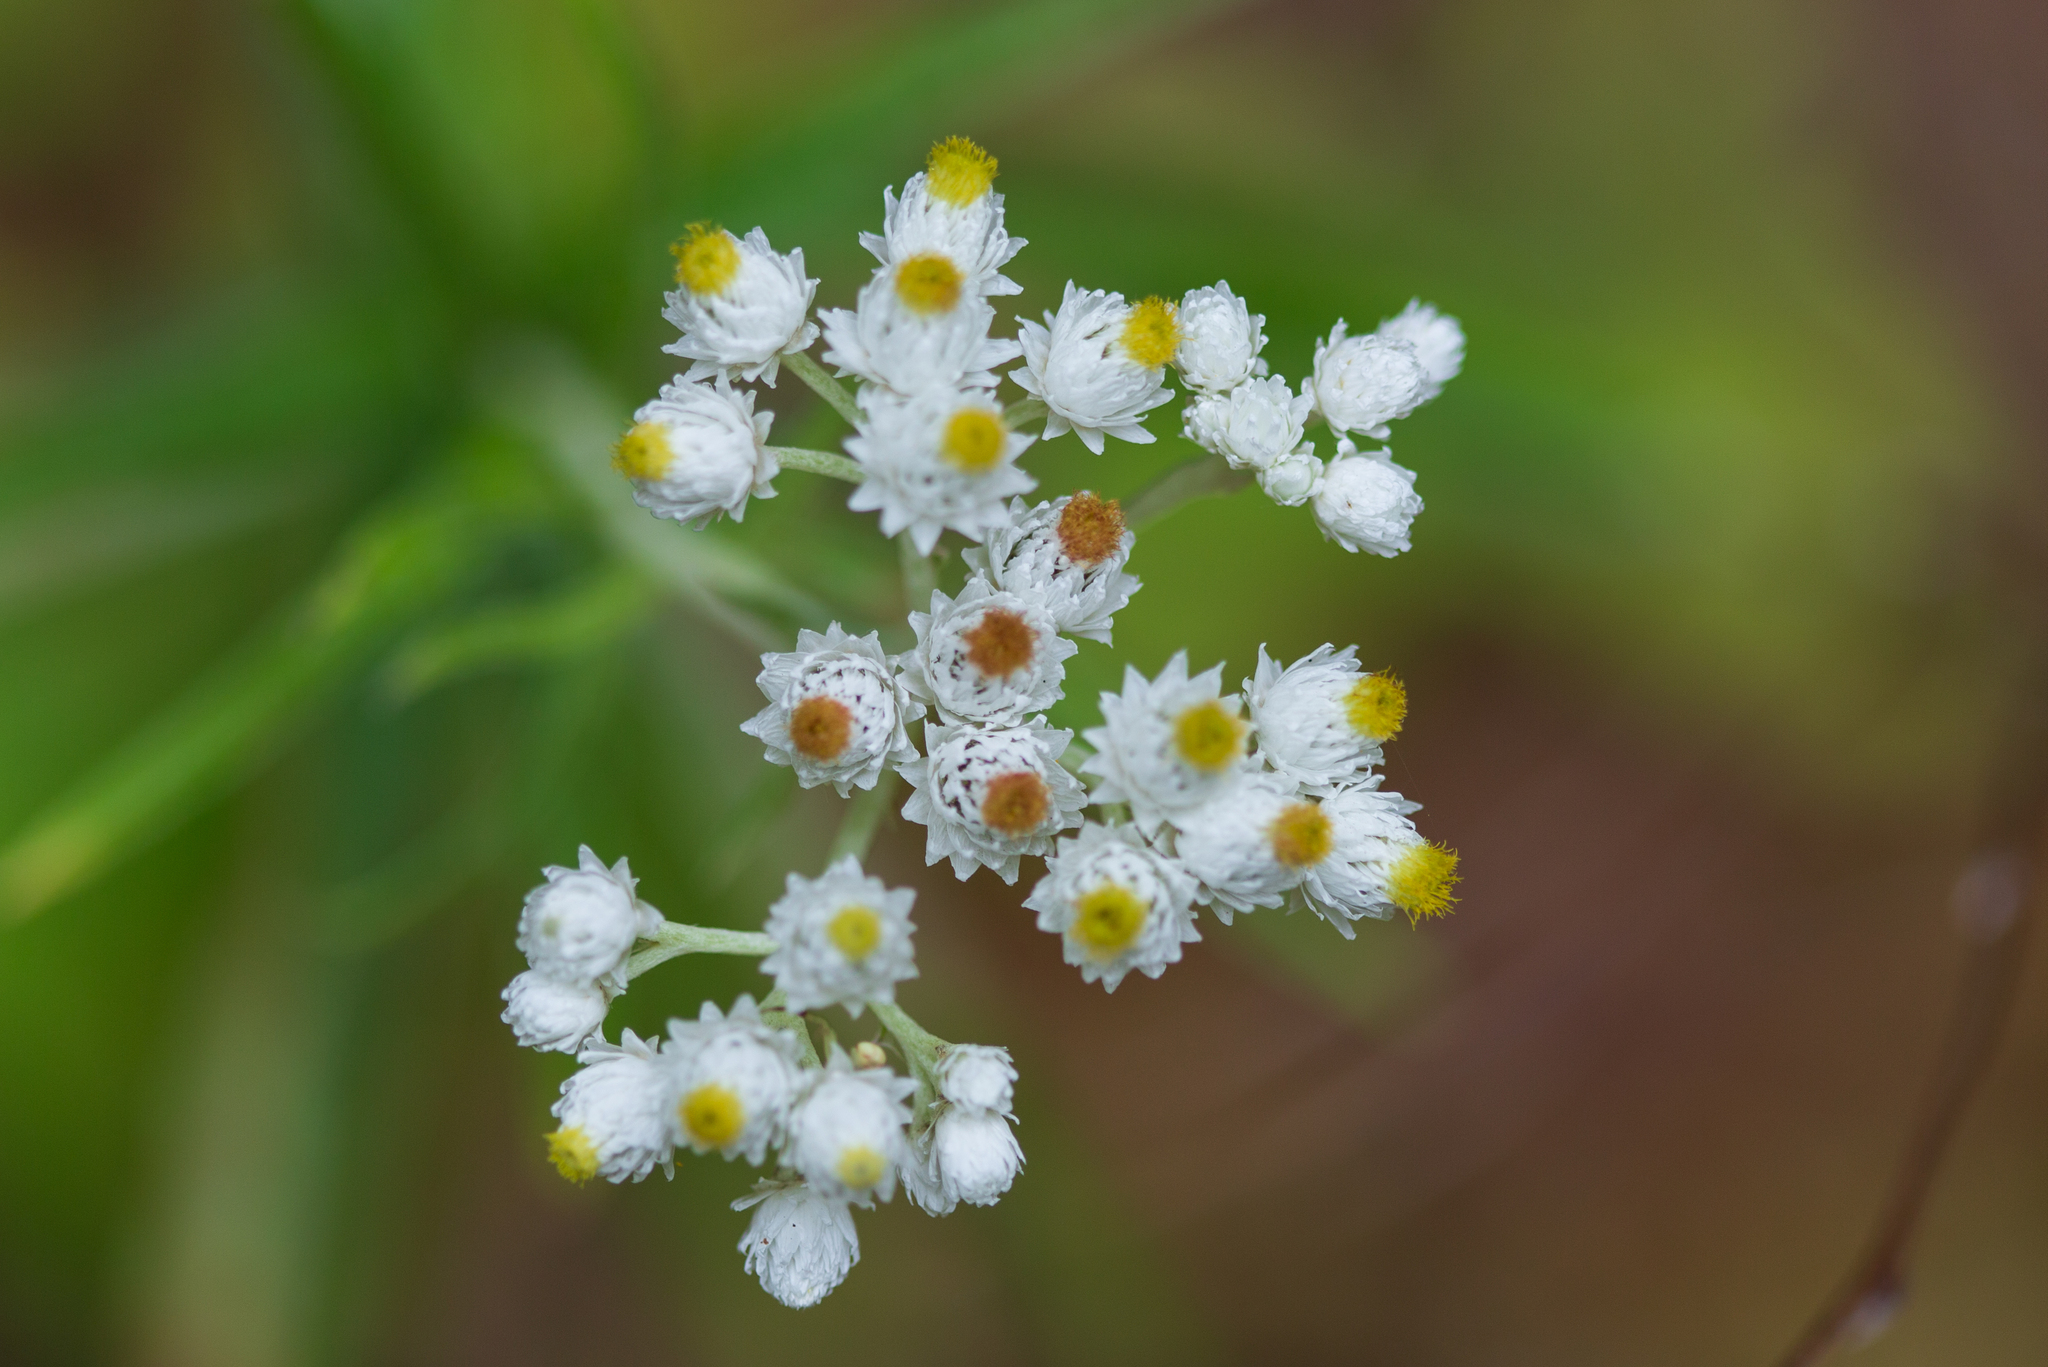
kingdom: Plantae
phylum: Tracheophyta
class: Magnoliopsida
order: Asterales
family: Asteraceae
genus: Anaphalis
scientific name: Anaphalis margaritacea
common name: Pearly everlasting
